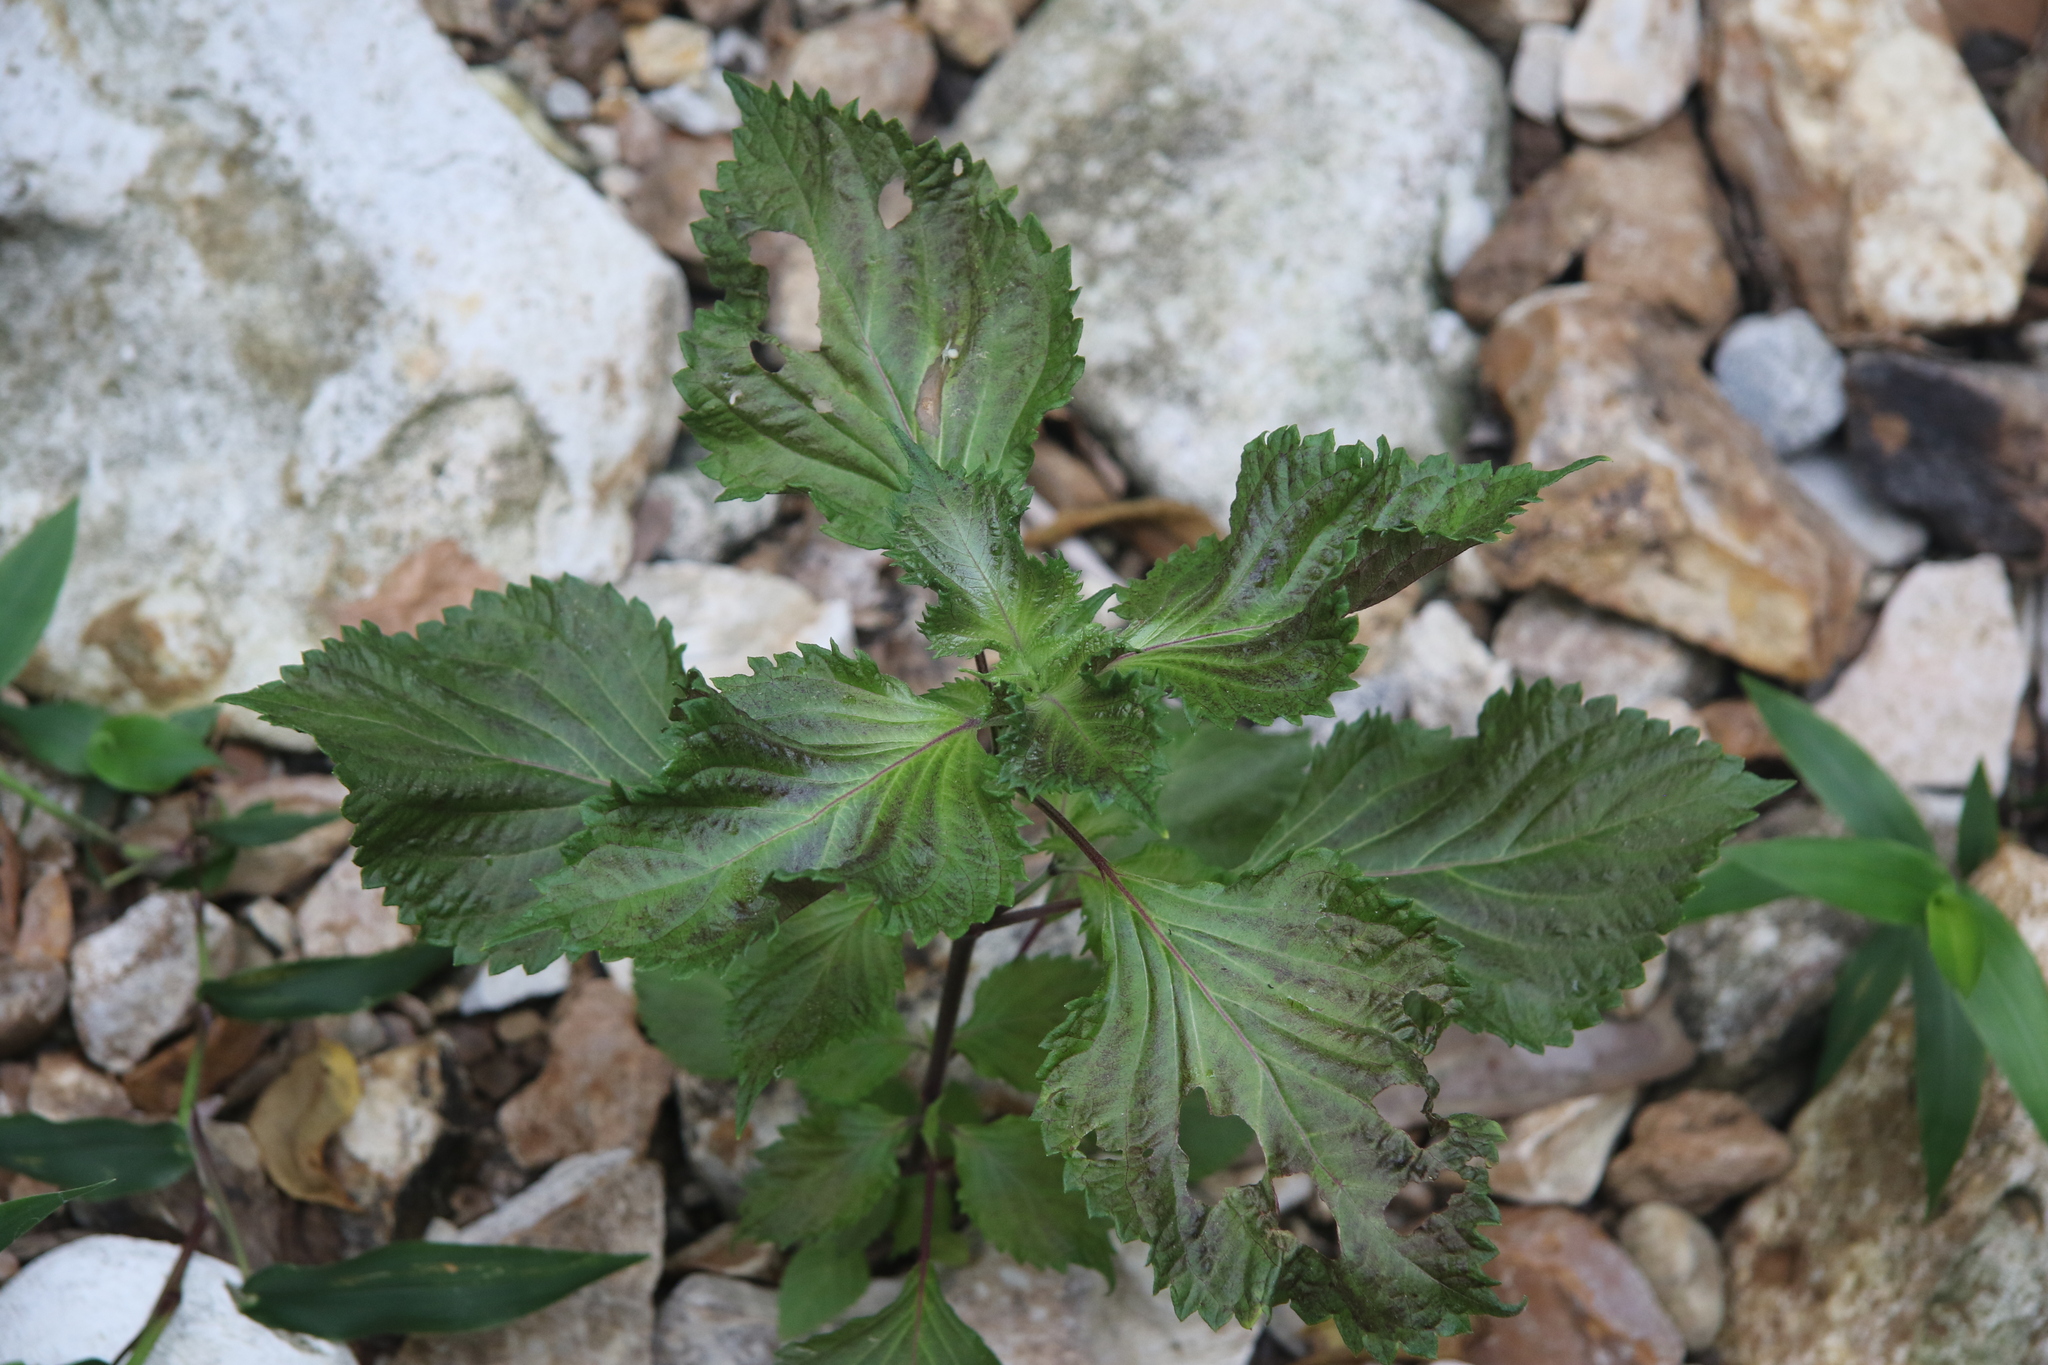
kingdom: Plantae
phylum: Tracheophyta
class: Magnoliopsida
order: Lamiales
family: Lamiaceae
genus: Perilla
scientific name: Perilla frutescens
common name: Perilla
